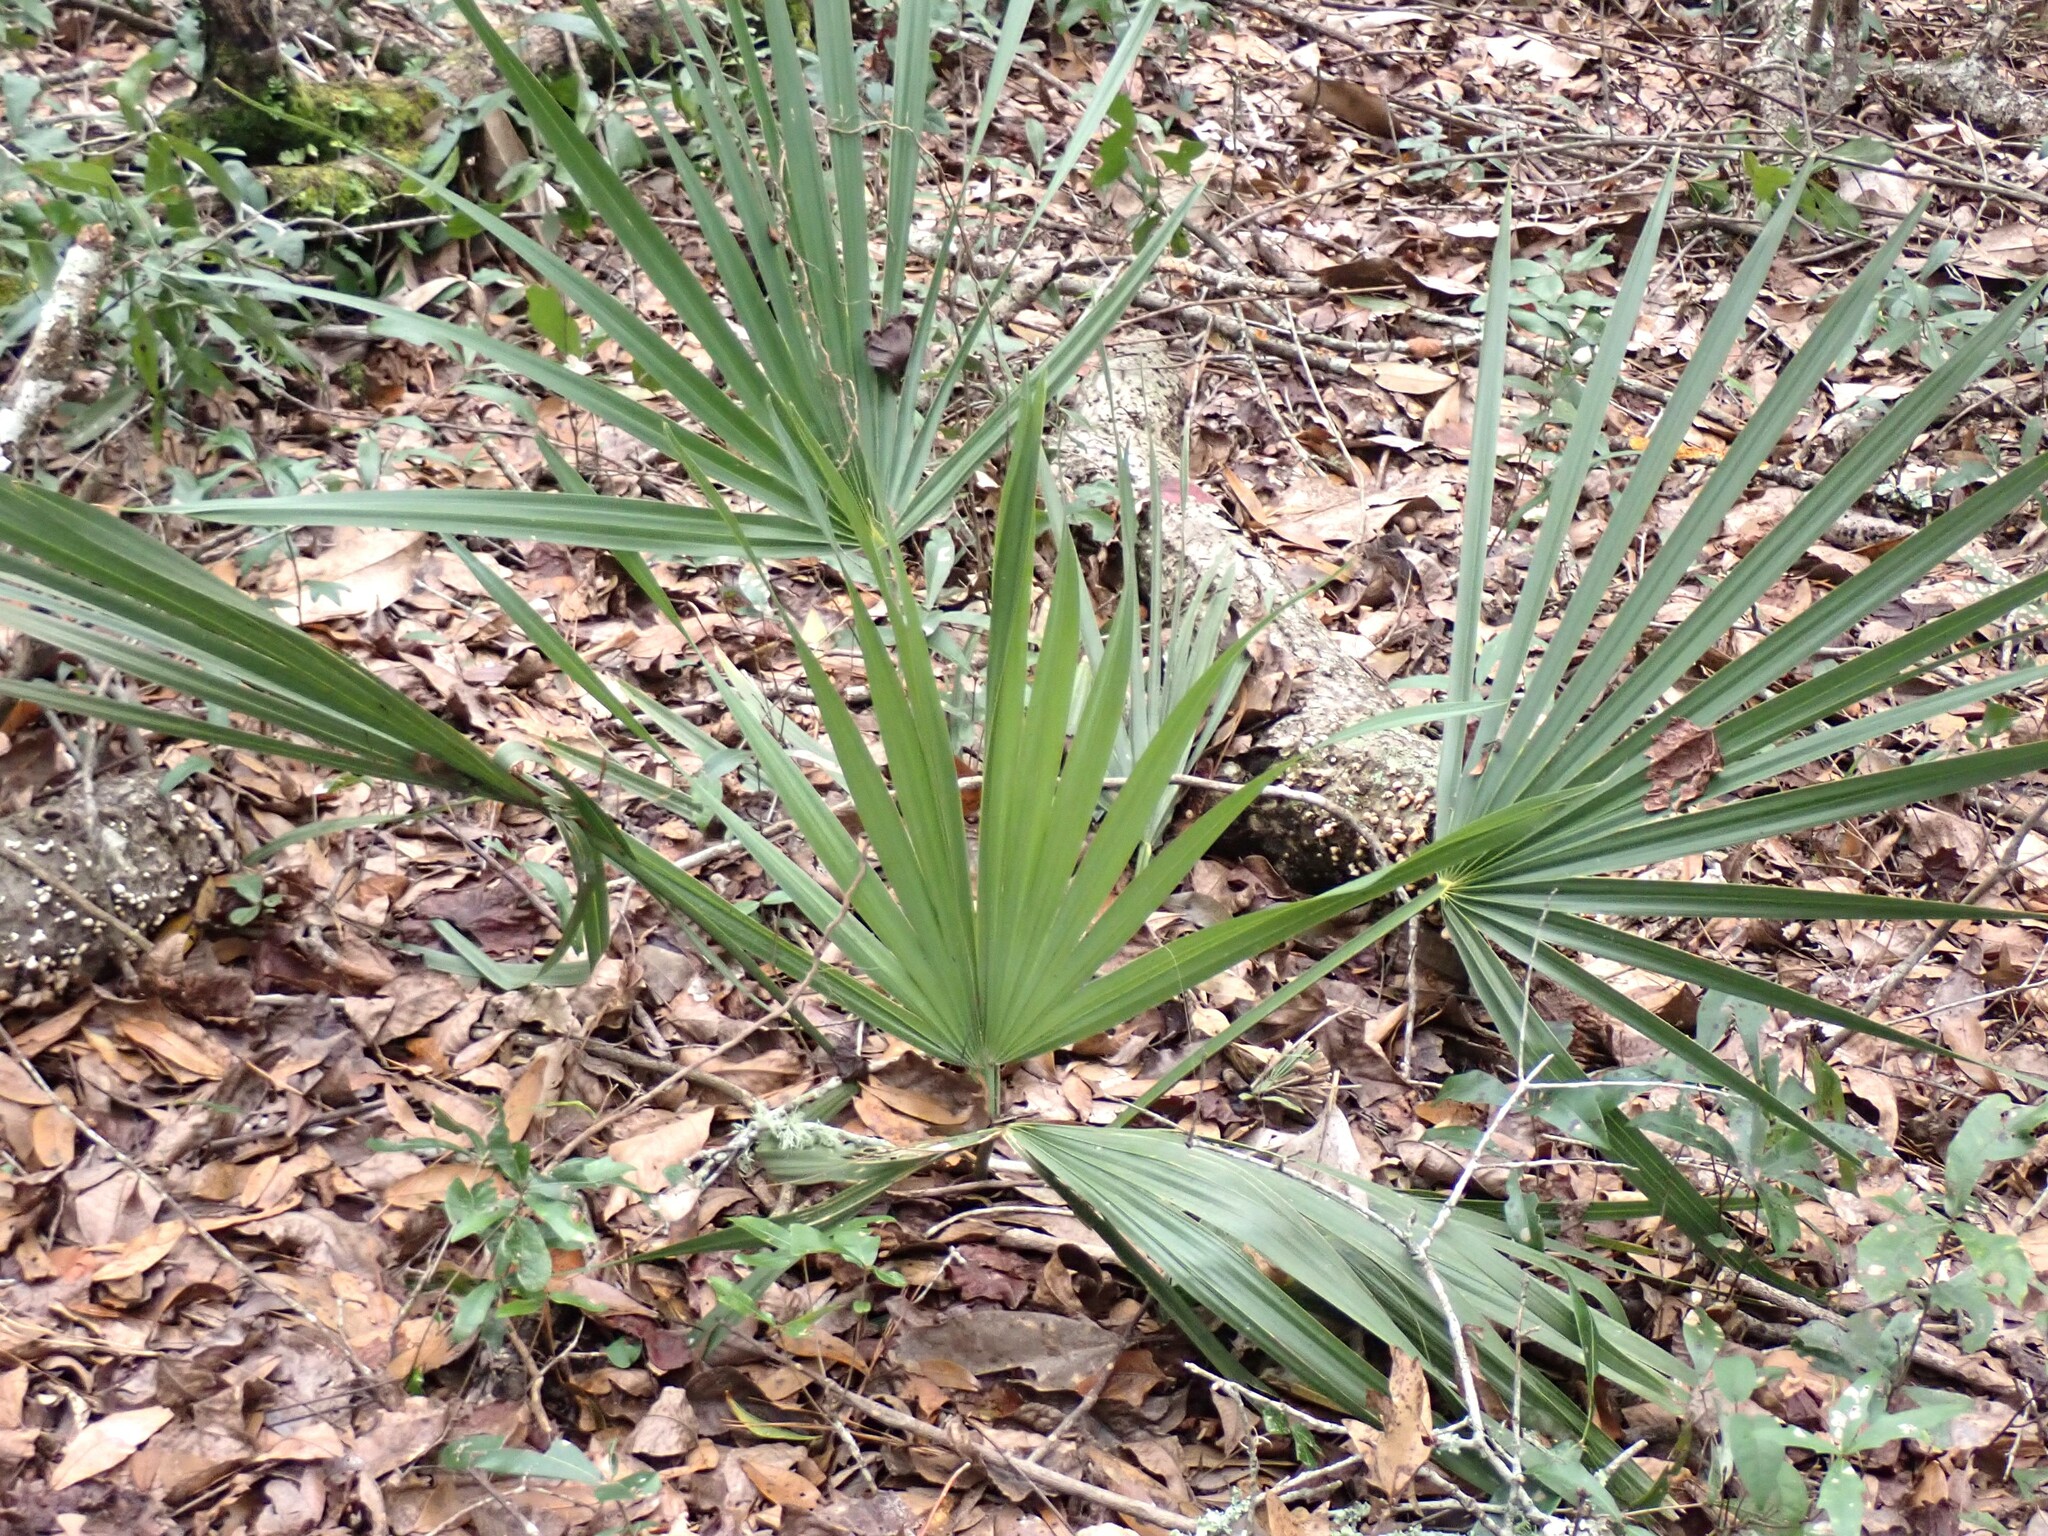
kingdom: Plantae
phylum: Tracheophyta
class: Liliopsida
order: Arecales
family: Arecaceae
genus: Sabal
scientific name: Sabal minor
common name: Dwarf palmetto
